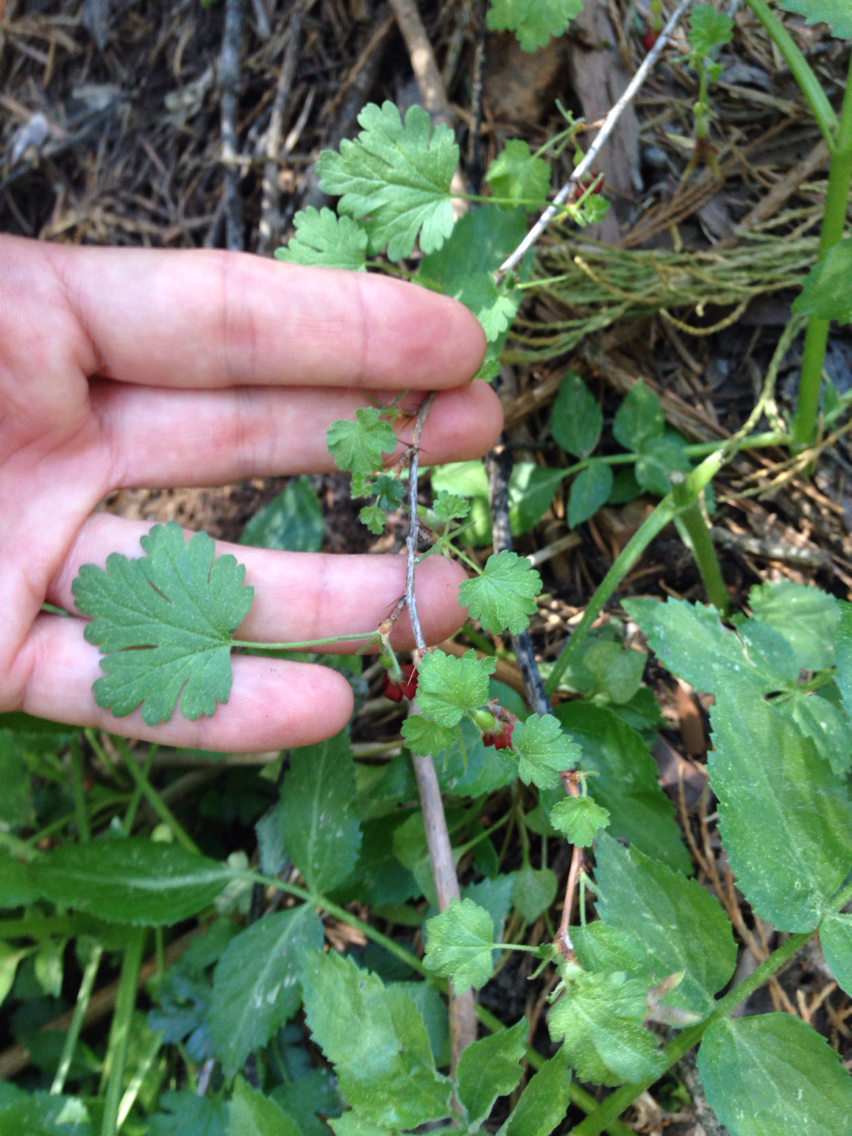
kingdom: Plantae
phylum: Tracheophyta
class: Magnoliopsida
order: Saxifragales
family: Grossulariaceae
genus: Ribes
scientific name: Ribes roezlii
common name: Sierra gooseberry
